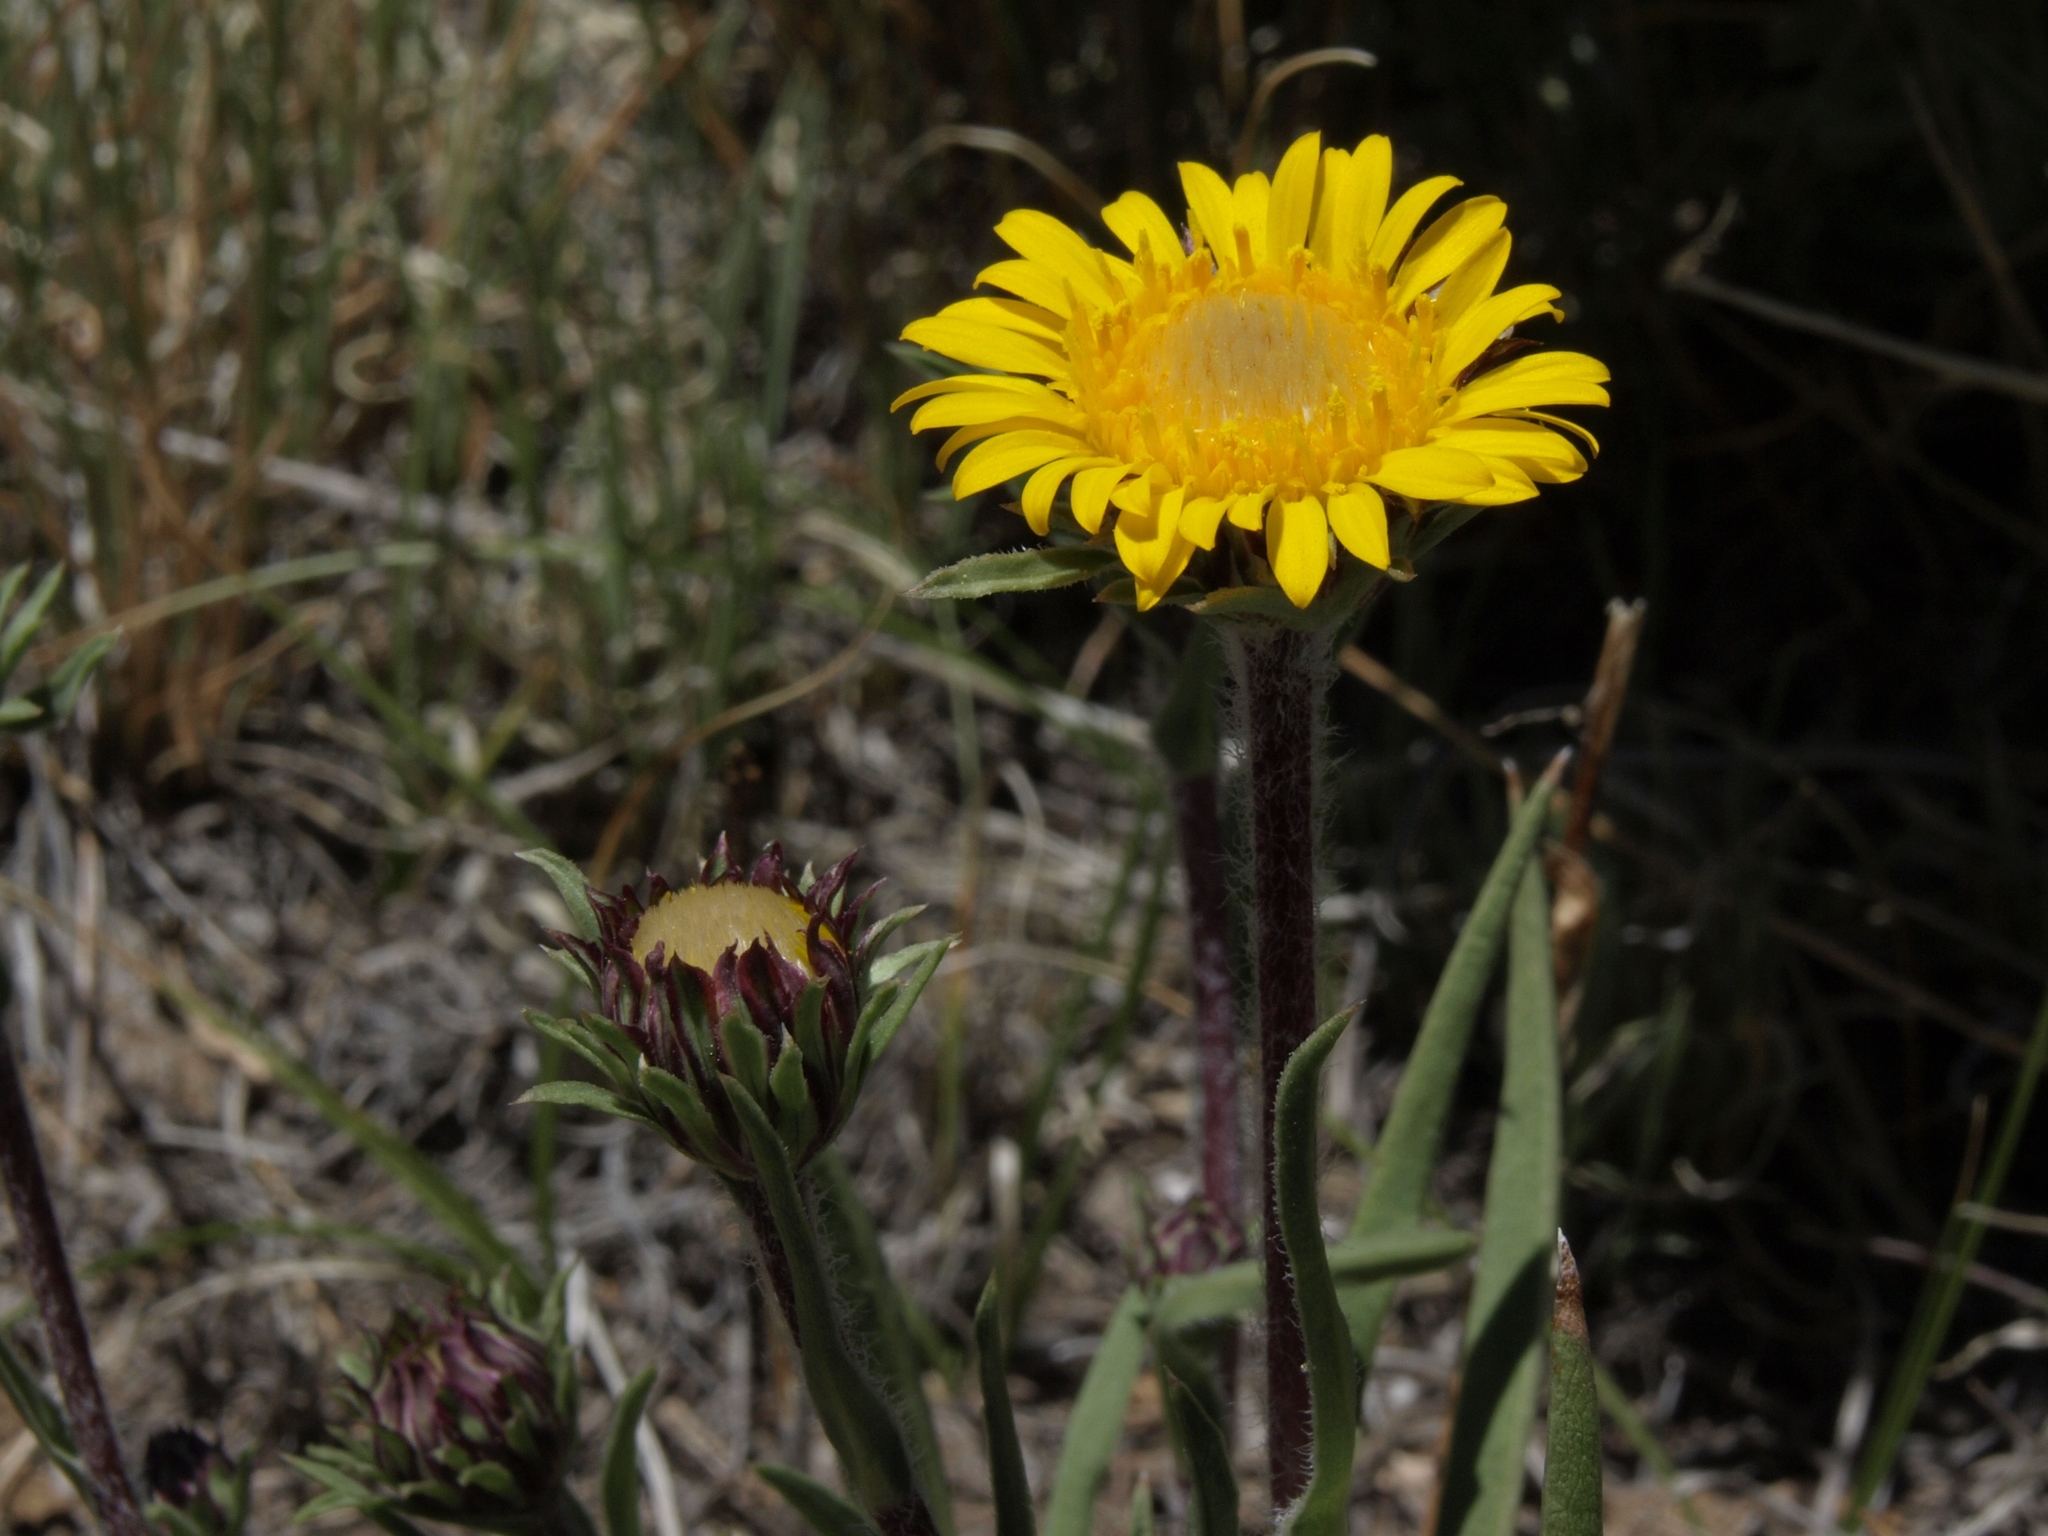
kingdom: Plantae
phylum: Tracheophyta
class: Magnoliopsida
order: Asterales
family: Asteraceae
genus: Pyrrocoma
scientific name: Pyrrocoma apargioides
